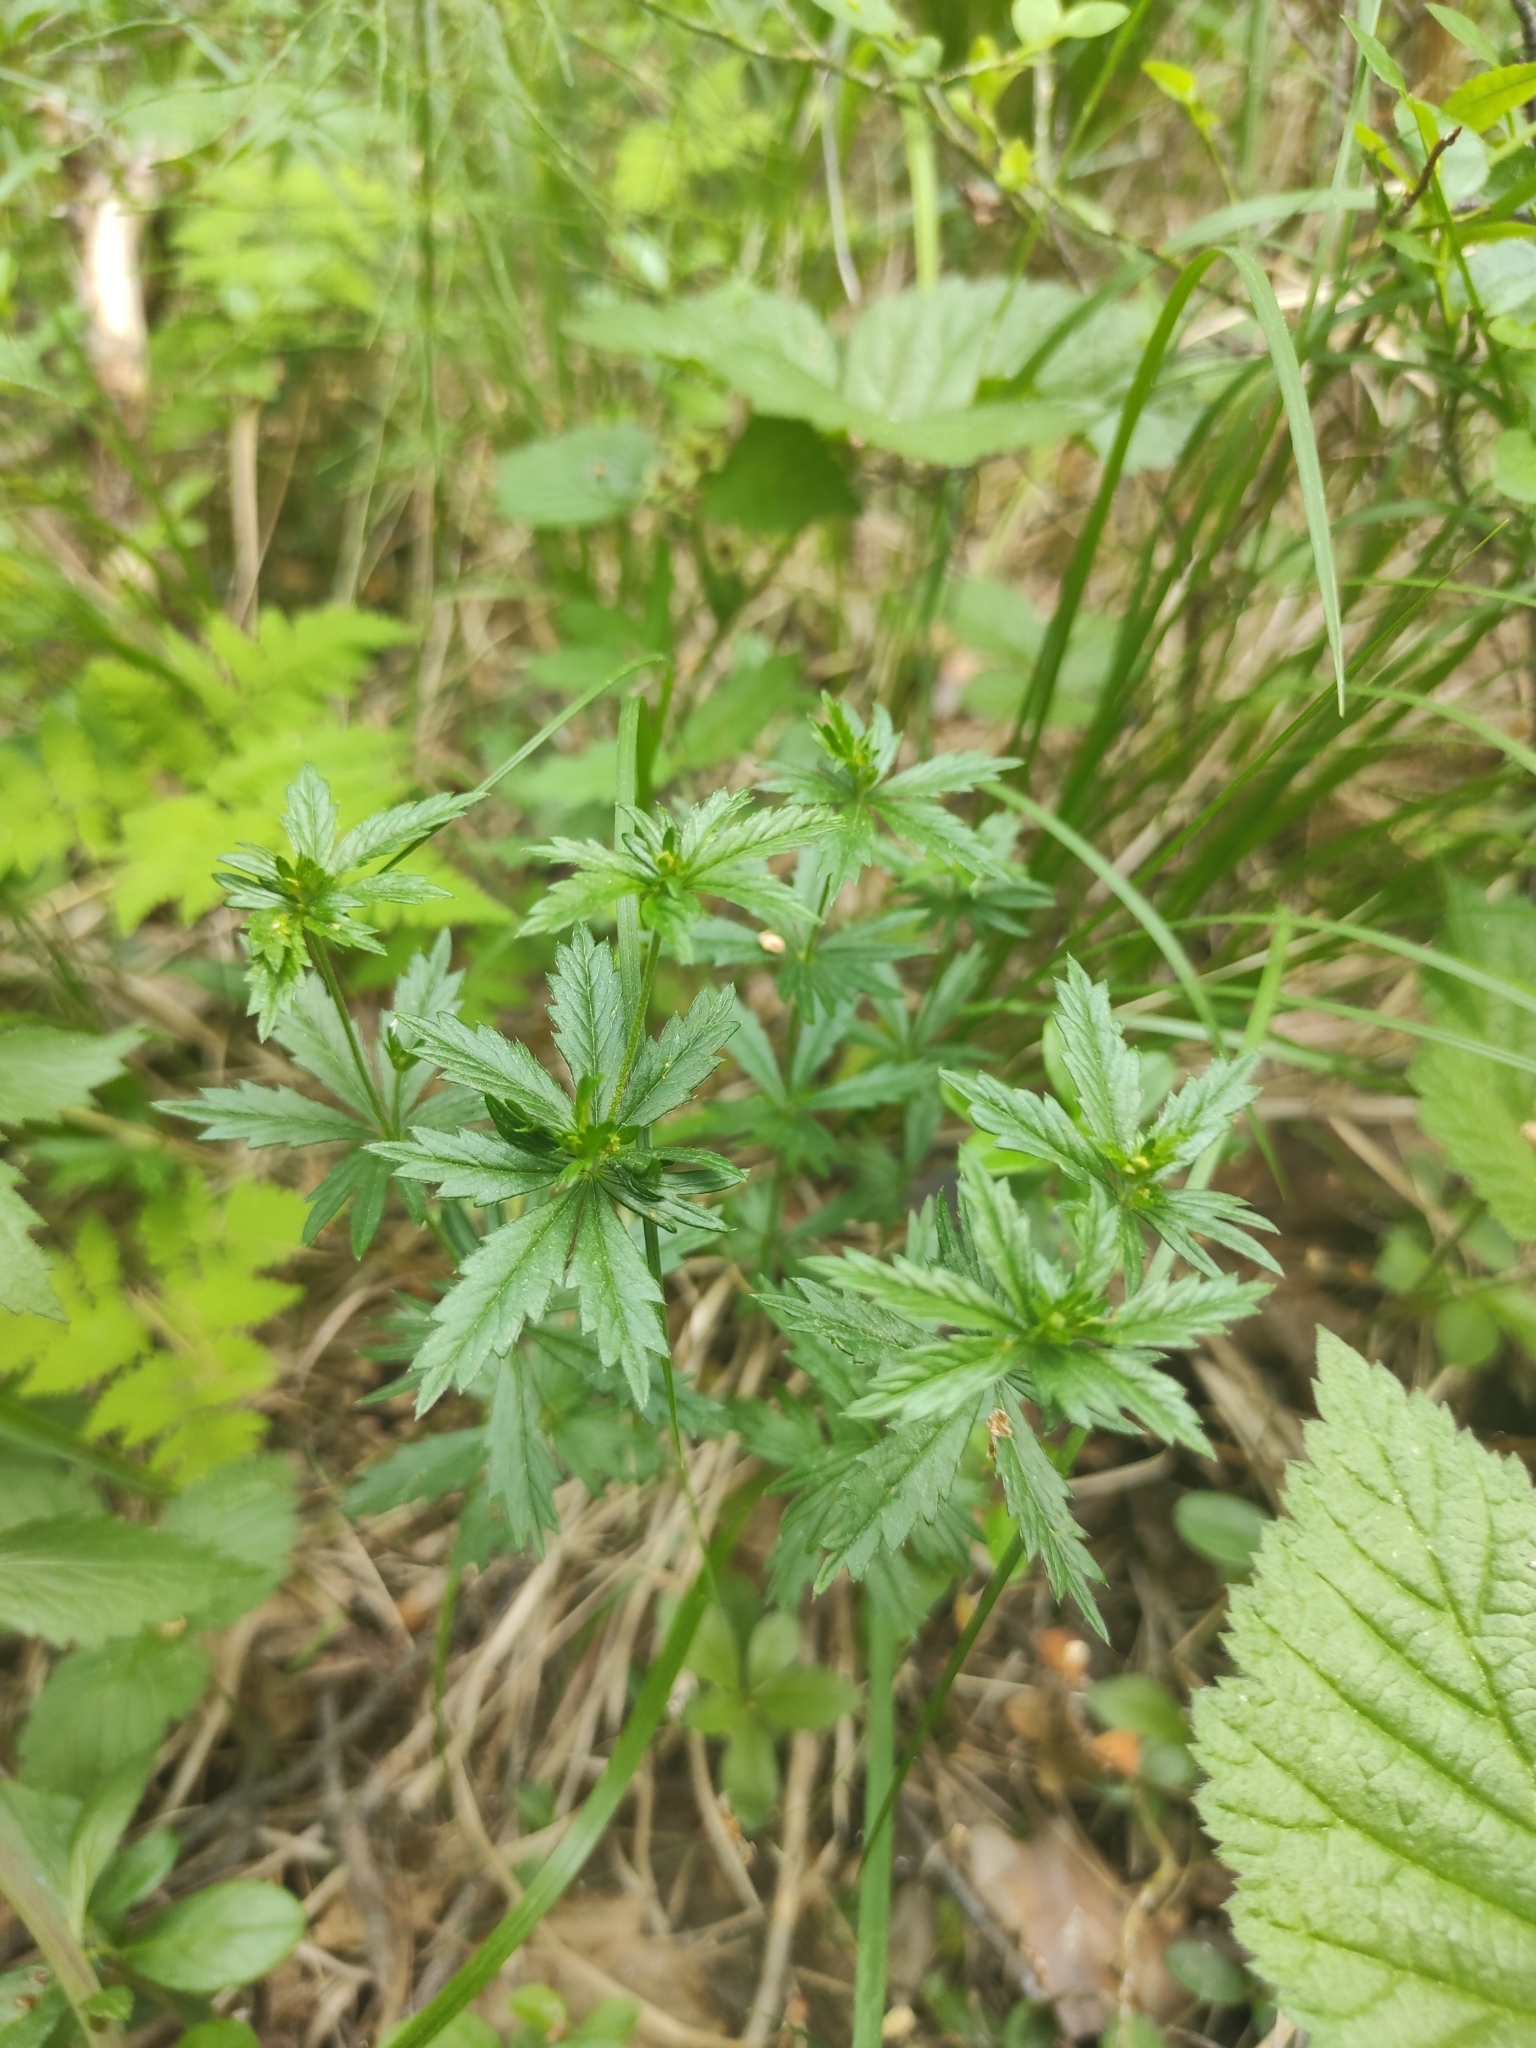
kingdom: Plantae
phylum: Tracheophyta
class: Magnoliopsida
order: Rosales
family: Rosaceae
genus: Potentilla
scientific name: Potentilla erecta
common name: Tormentil
